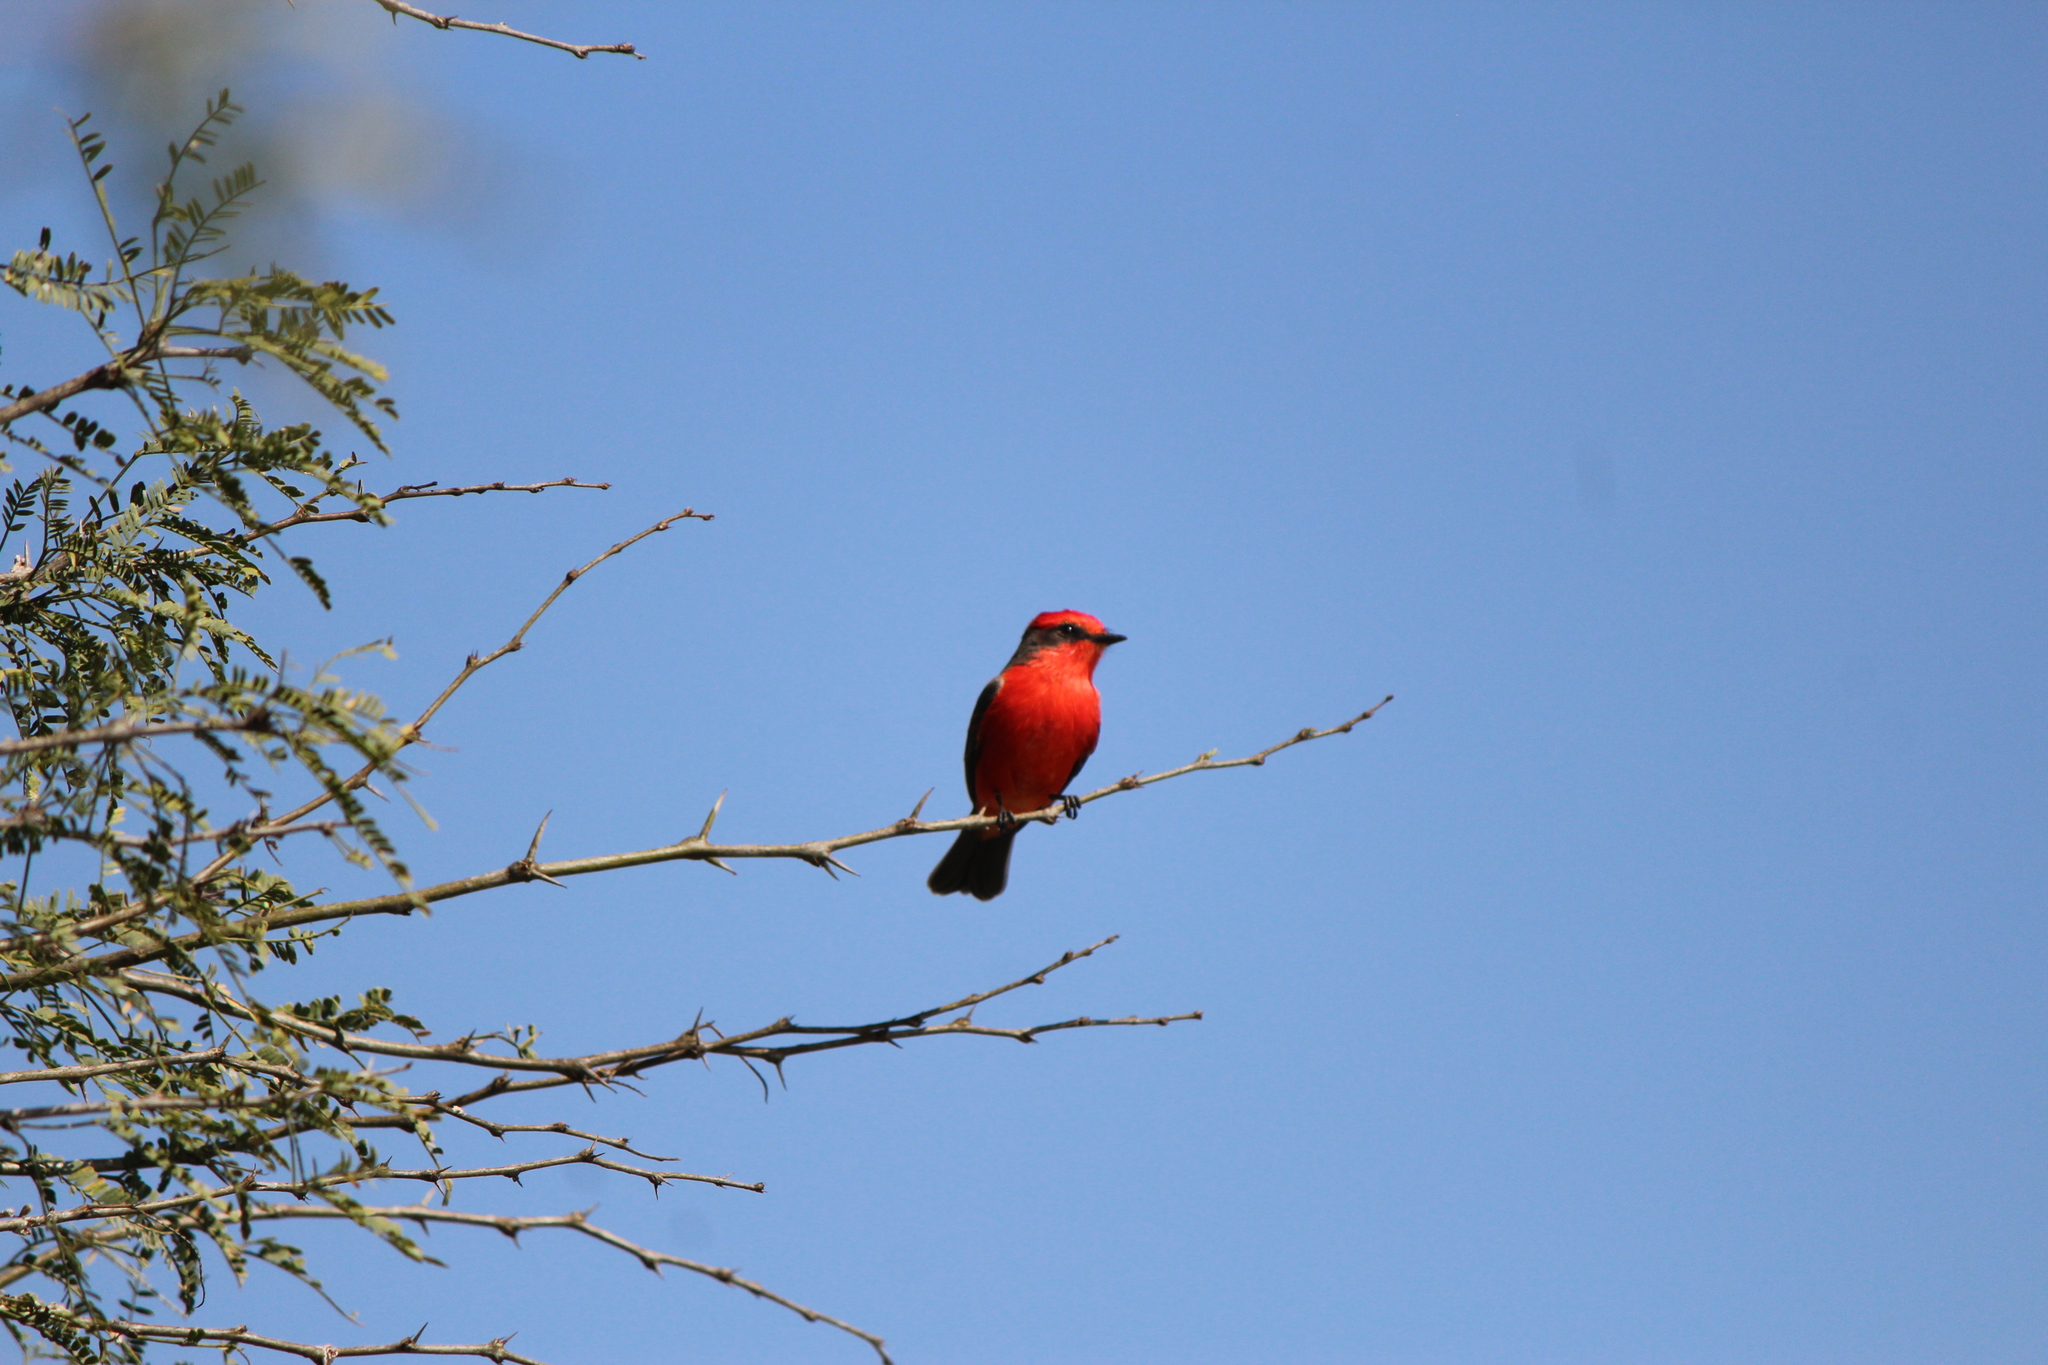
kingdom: Animalia
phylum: Chordata
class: Aves
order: Passeriformes
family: Tyrannidae
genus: Pyrocephalus
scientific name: Pyrocephalus rubinus
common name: Vermilion flycatcher
